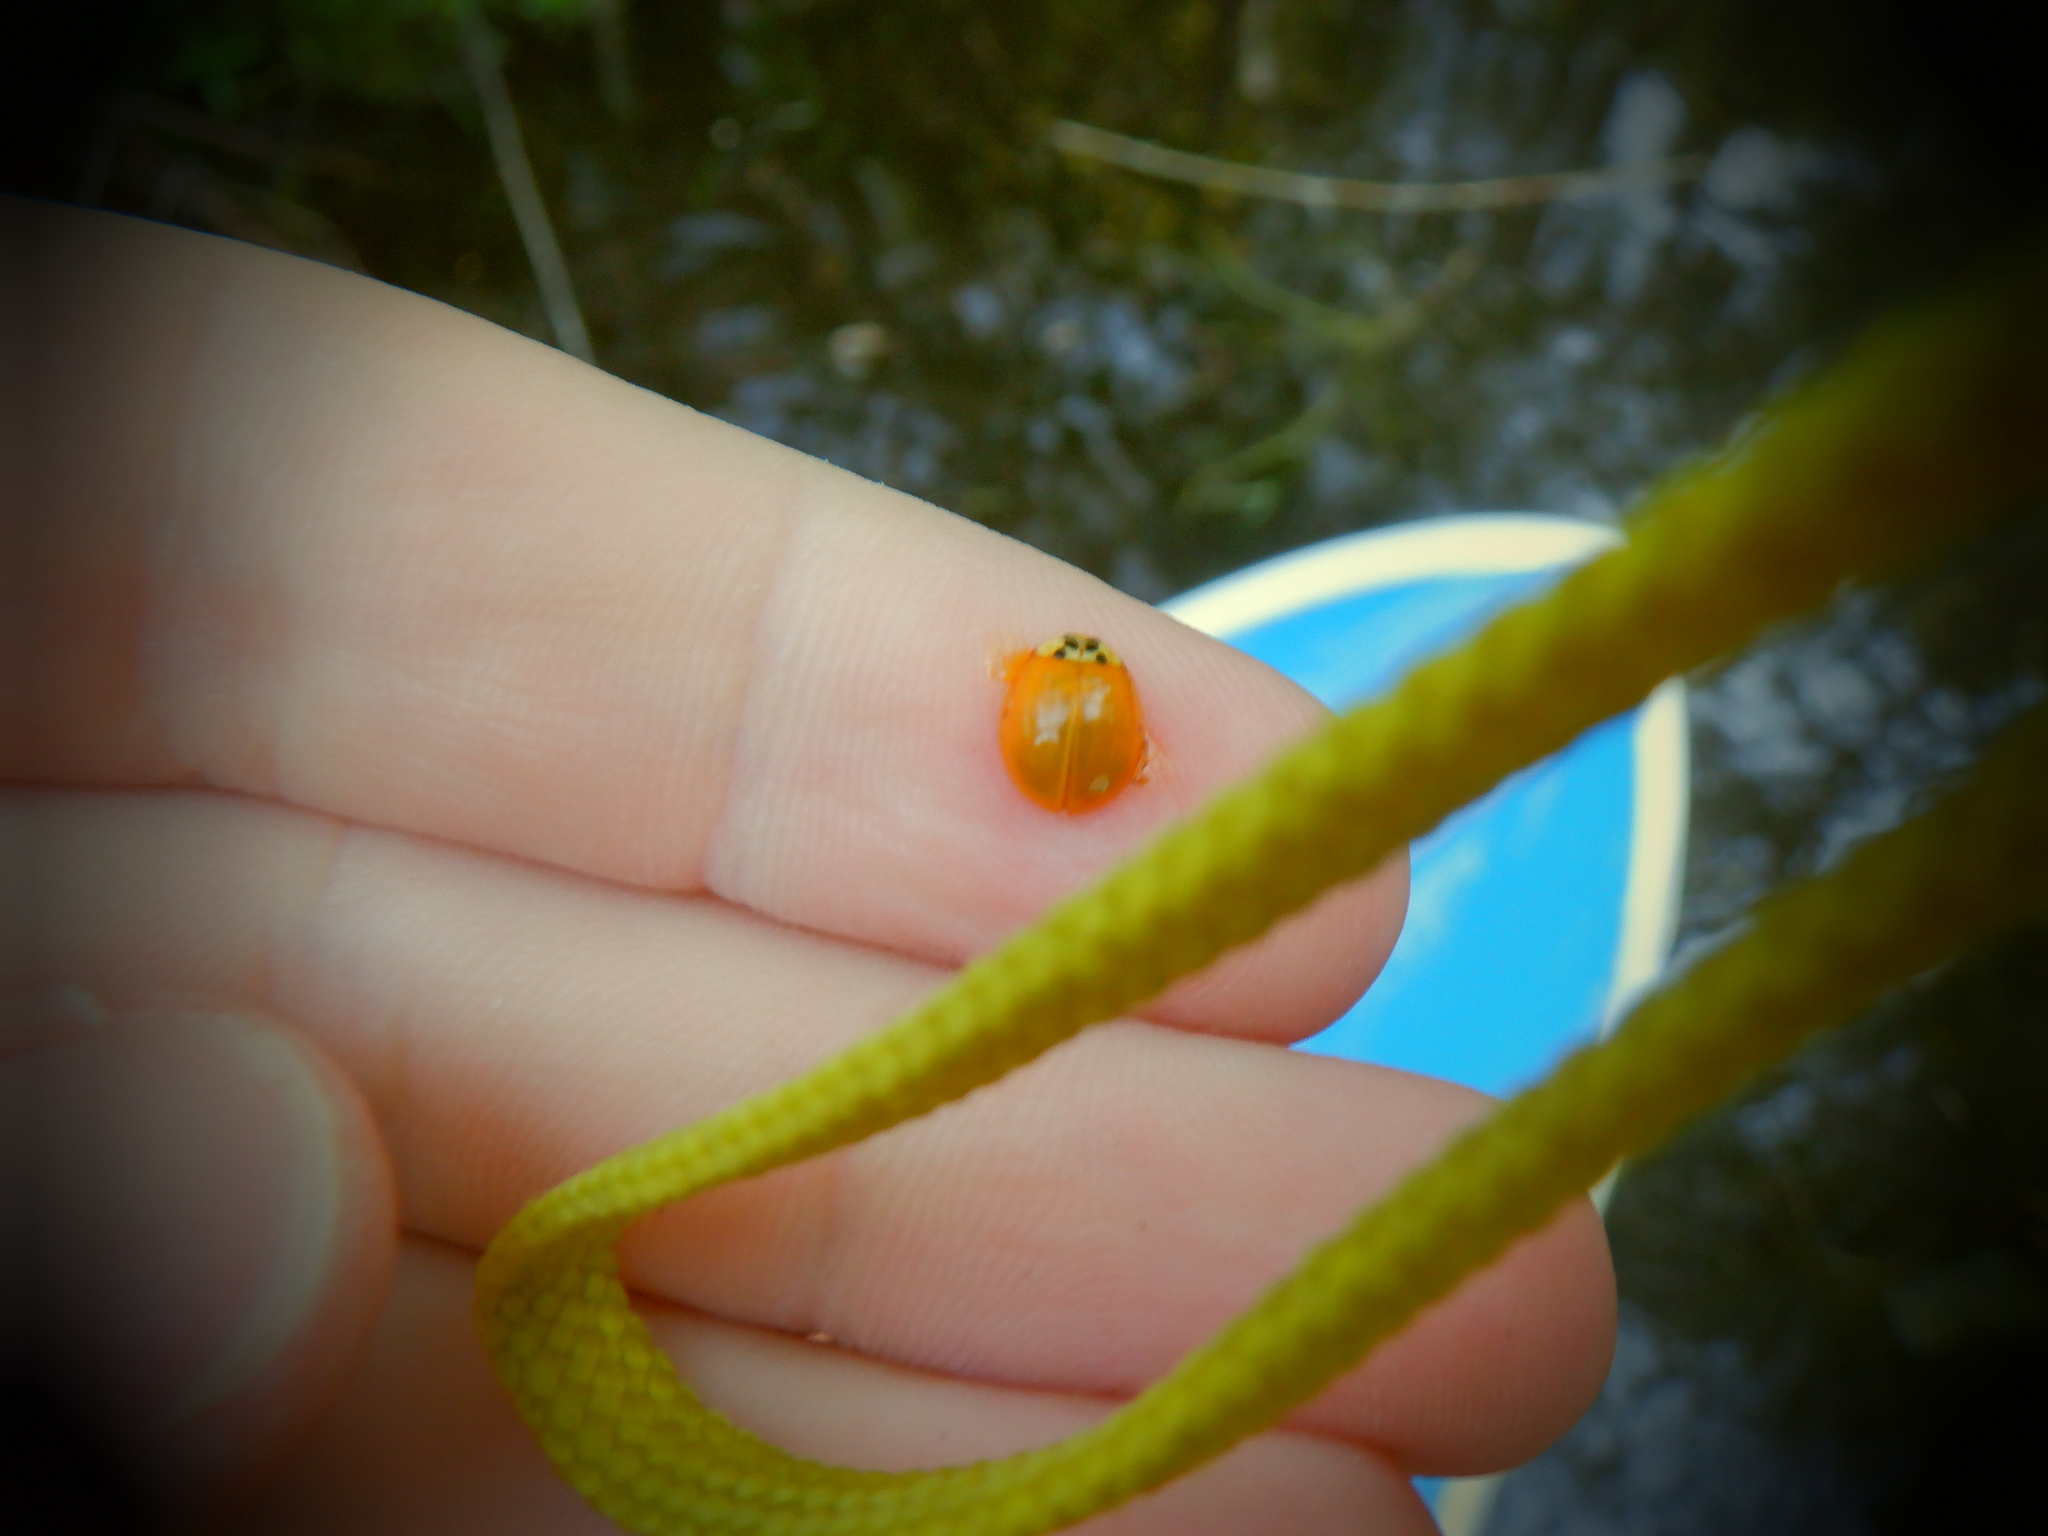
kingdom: Animalia
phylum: Arthropoda
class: Insecta
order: Coleoptera
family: Coccinellidae
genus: Harmonia
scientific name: Harmonia axyridis
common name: Harlequin ladybird
